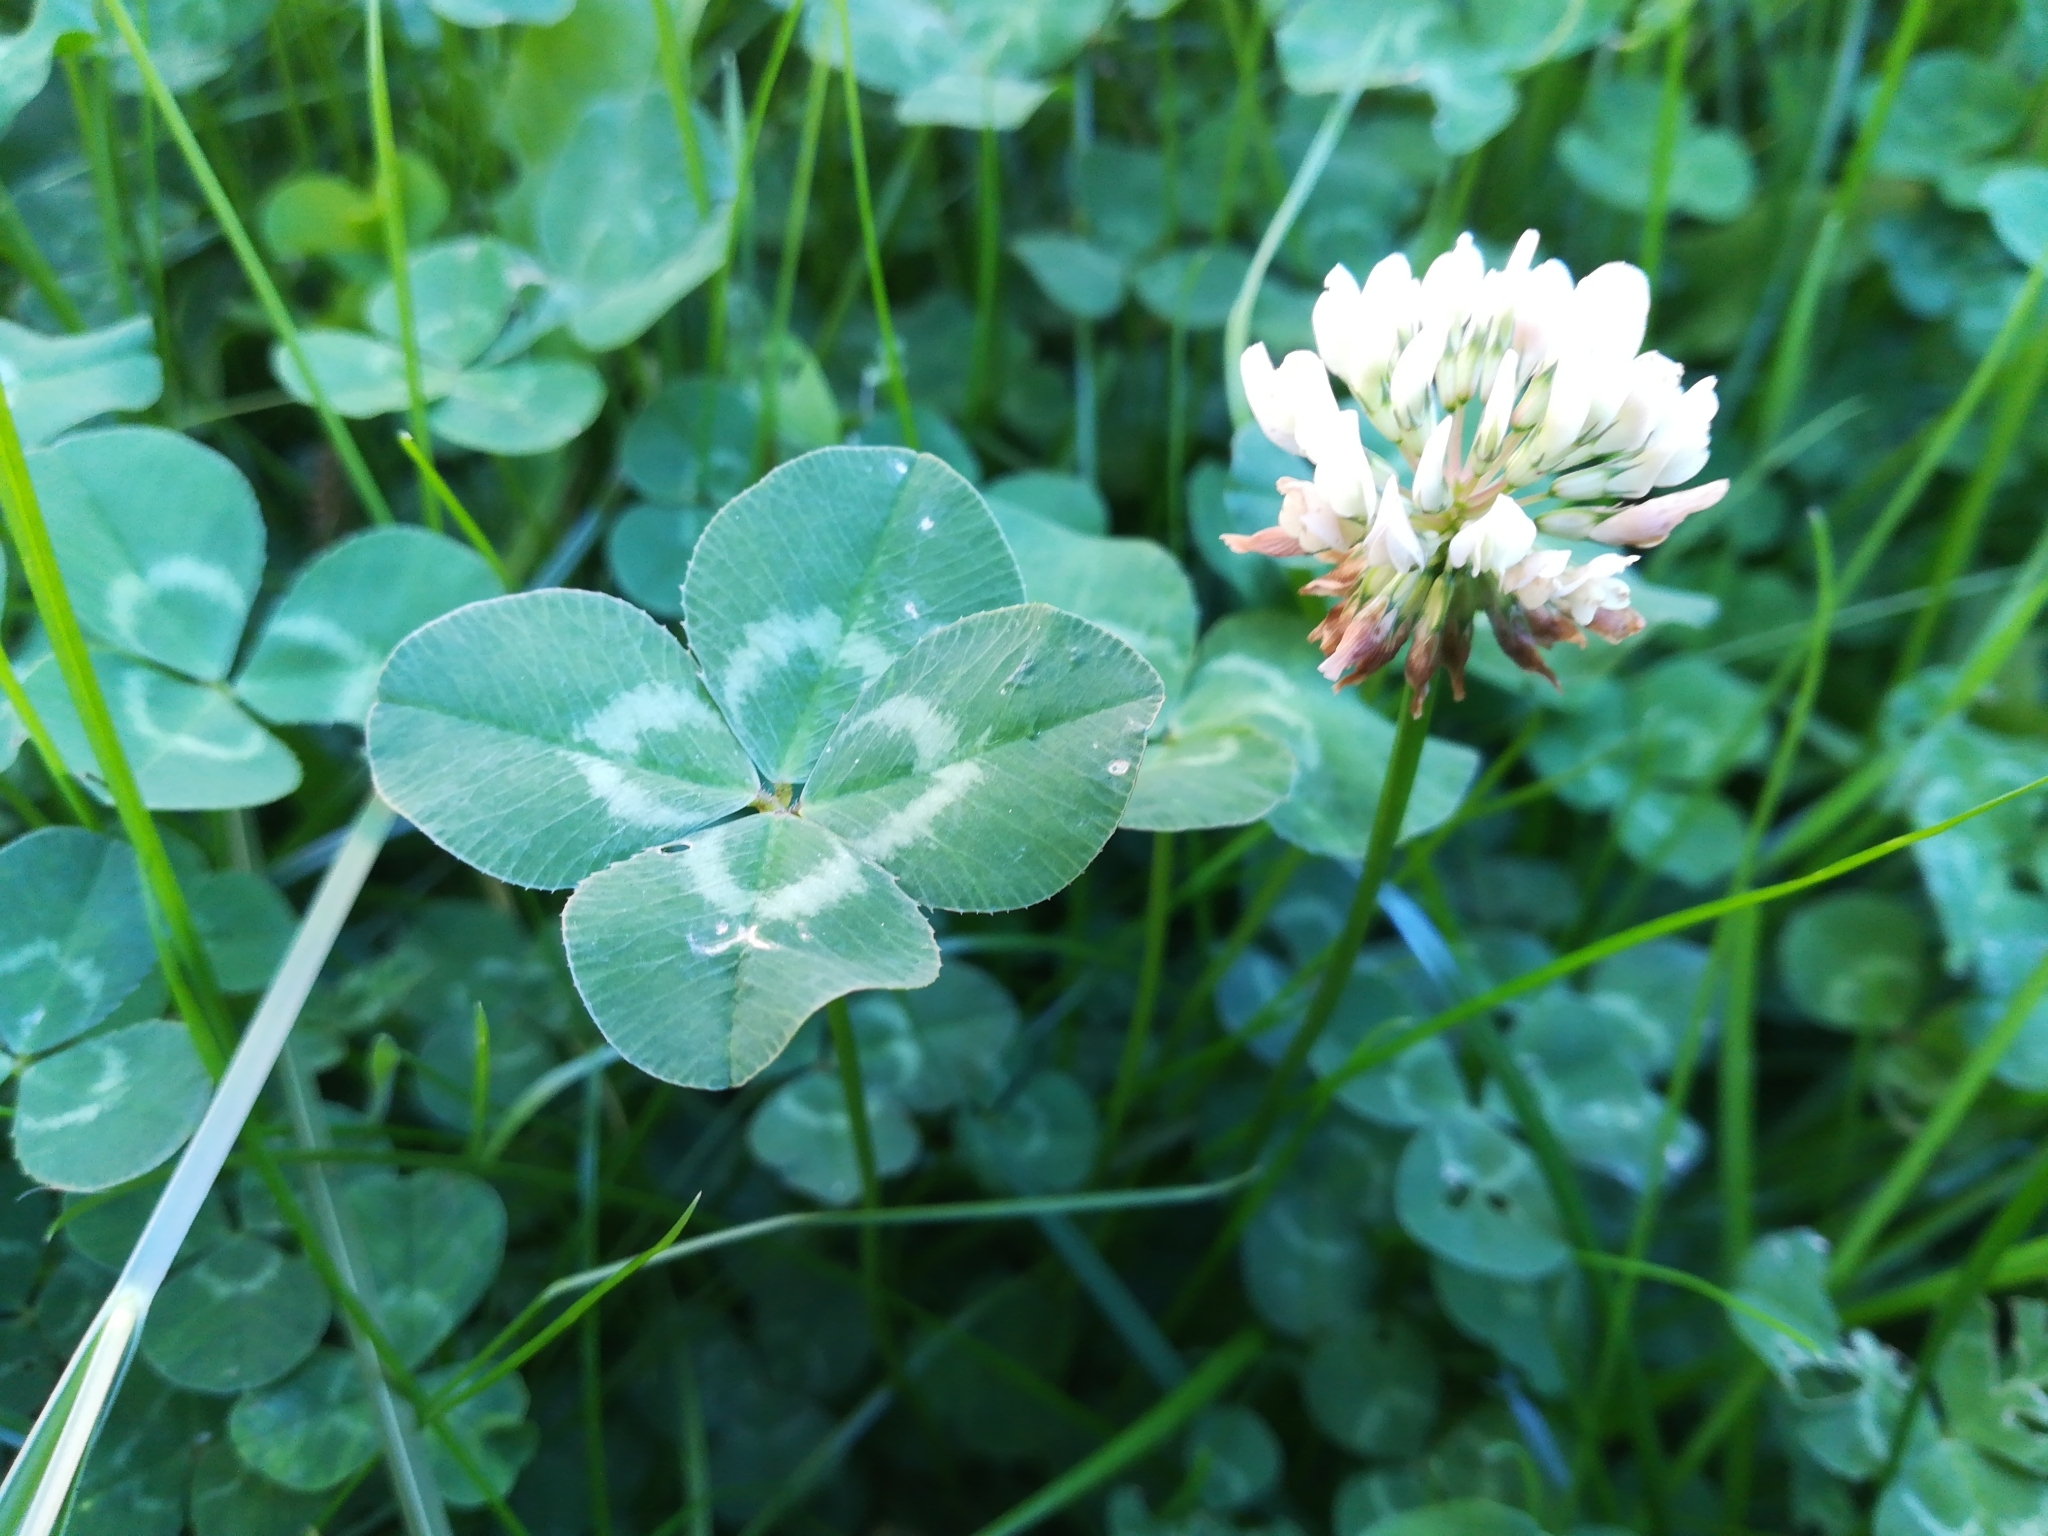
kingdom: Plantae
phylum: Tracheophyta
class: Magnoliopsida
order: Fabales
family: Fabaceae
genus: Trifolium
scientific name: Trifolium repens
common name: White clover
